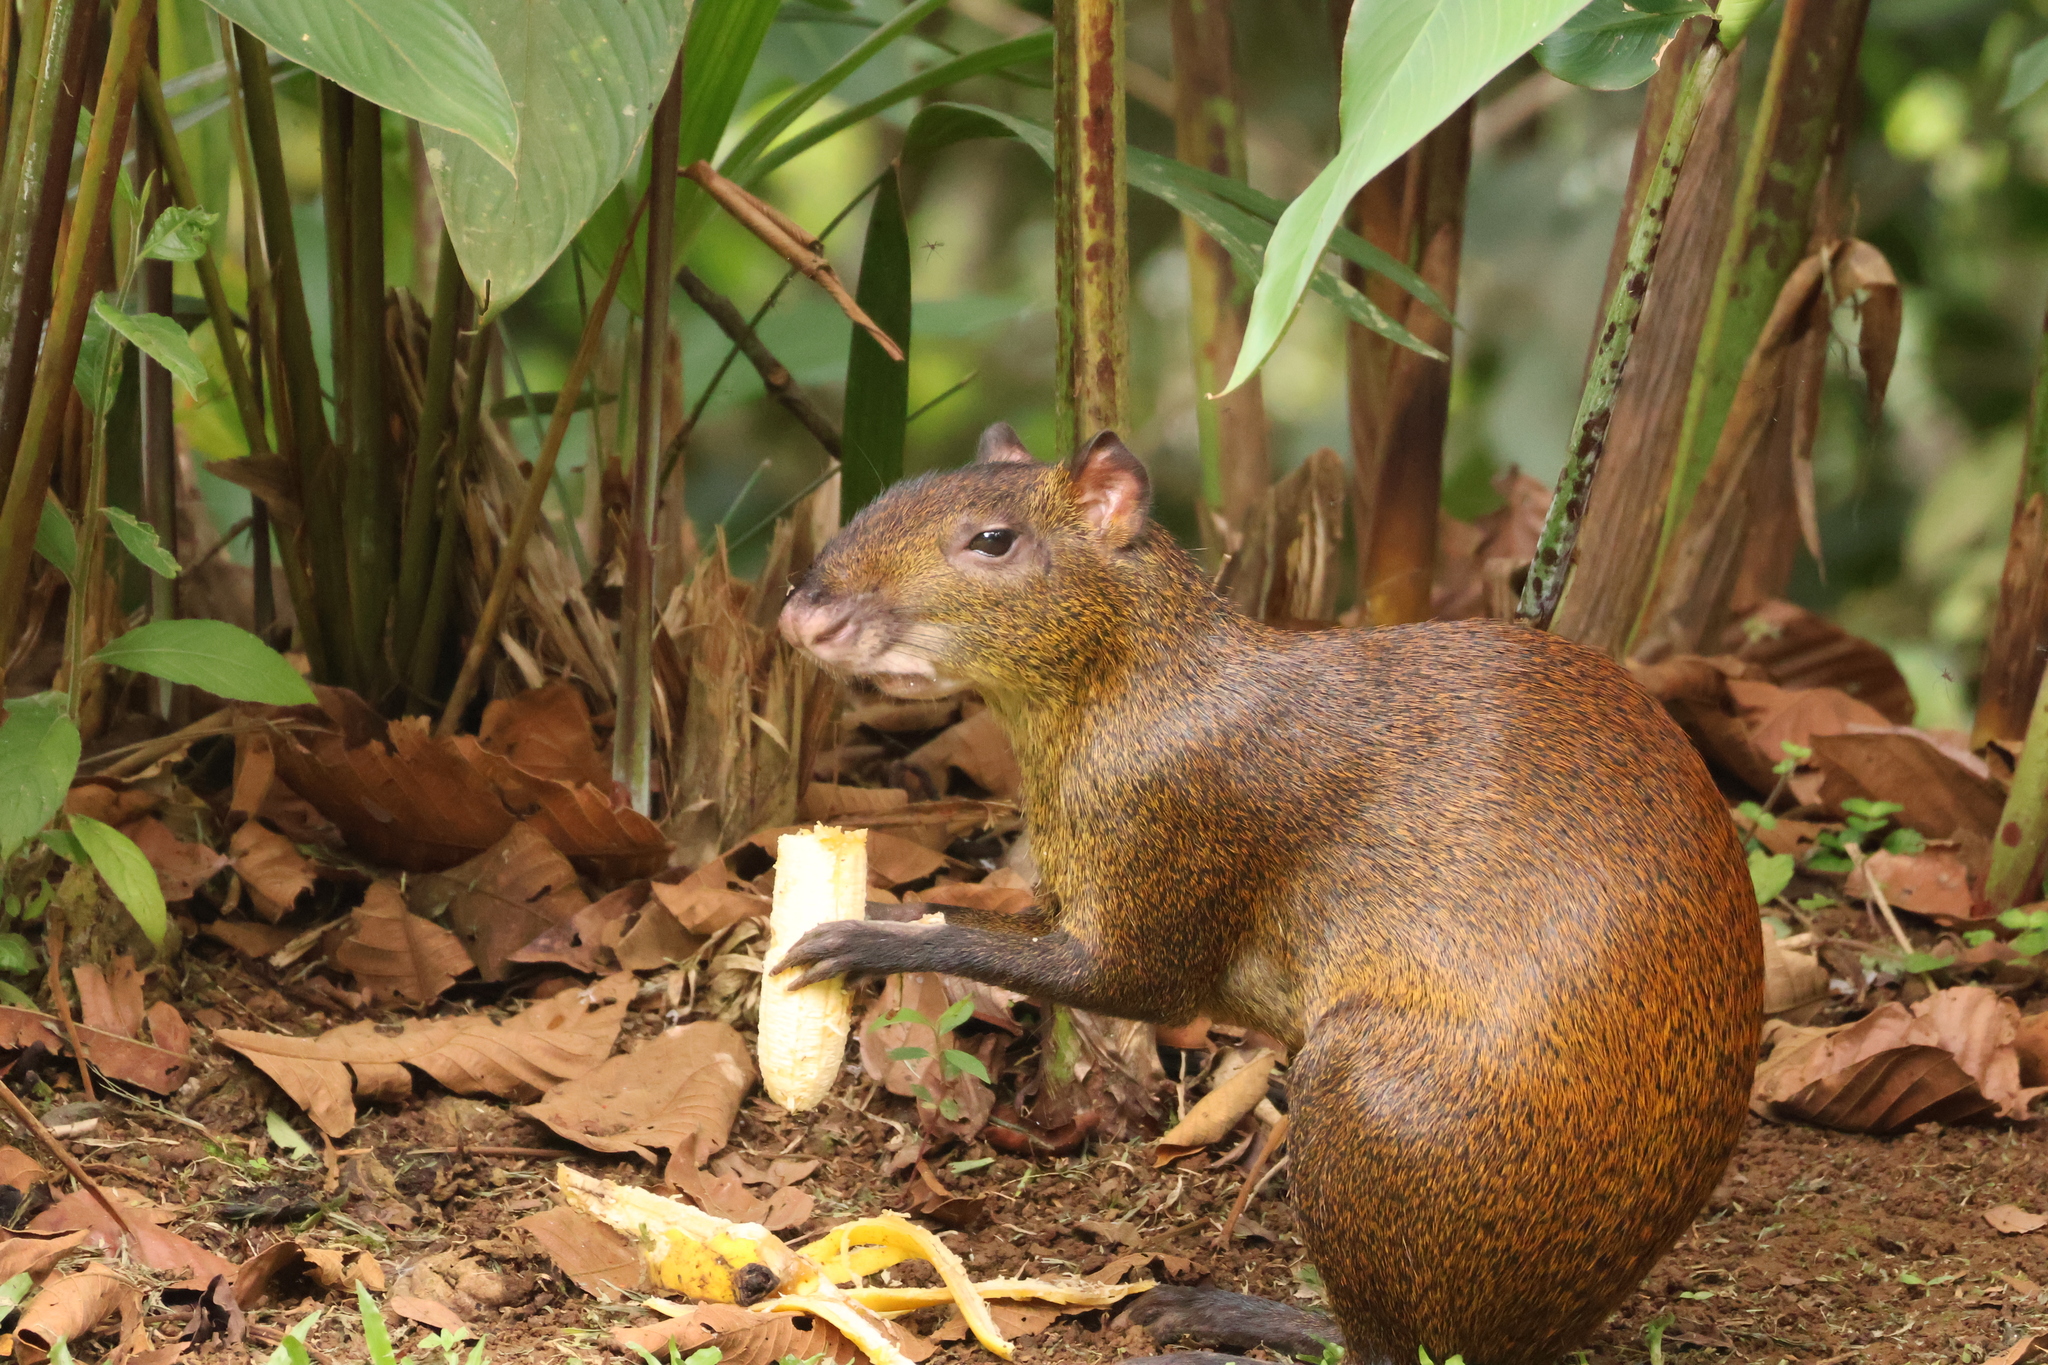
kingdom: Animalia
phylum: Chordata
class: Mammalia
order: Rodentia
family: Dasyproctidae
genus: Dasyprocta
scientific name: Dasyprocta punctata
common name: Central american agouti
